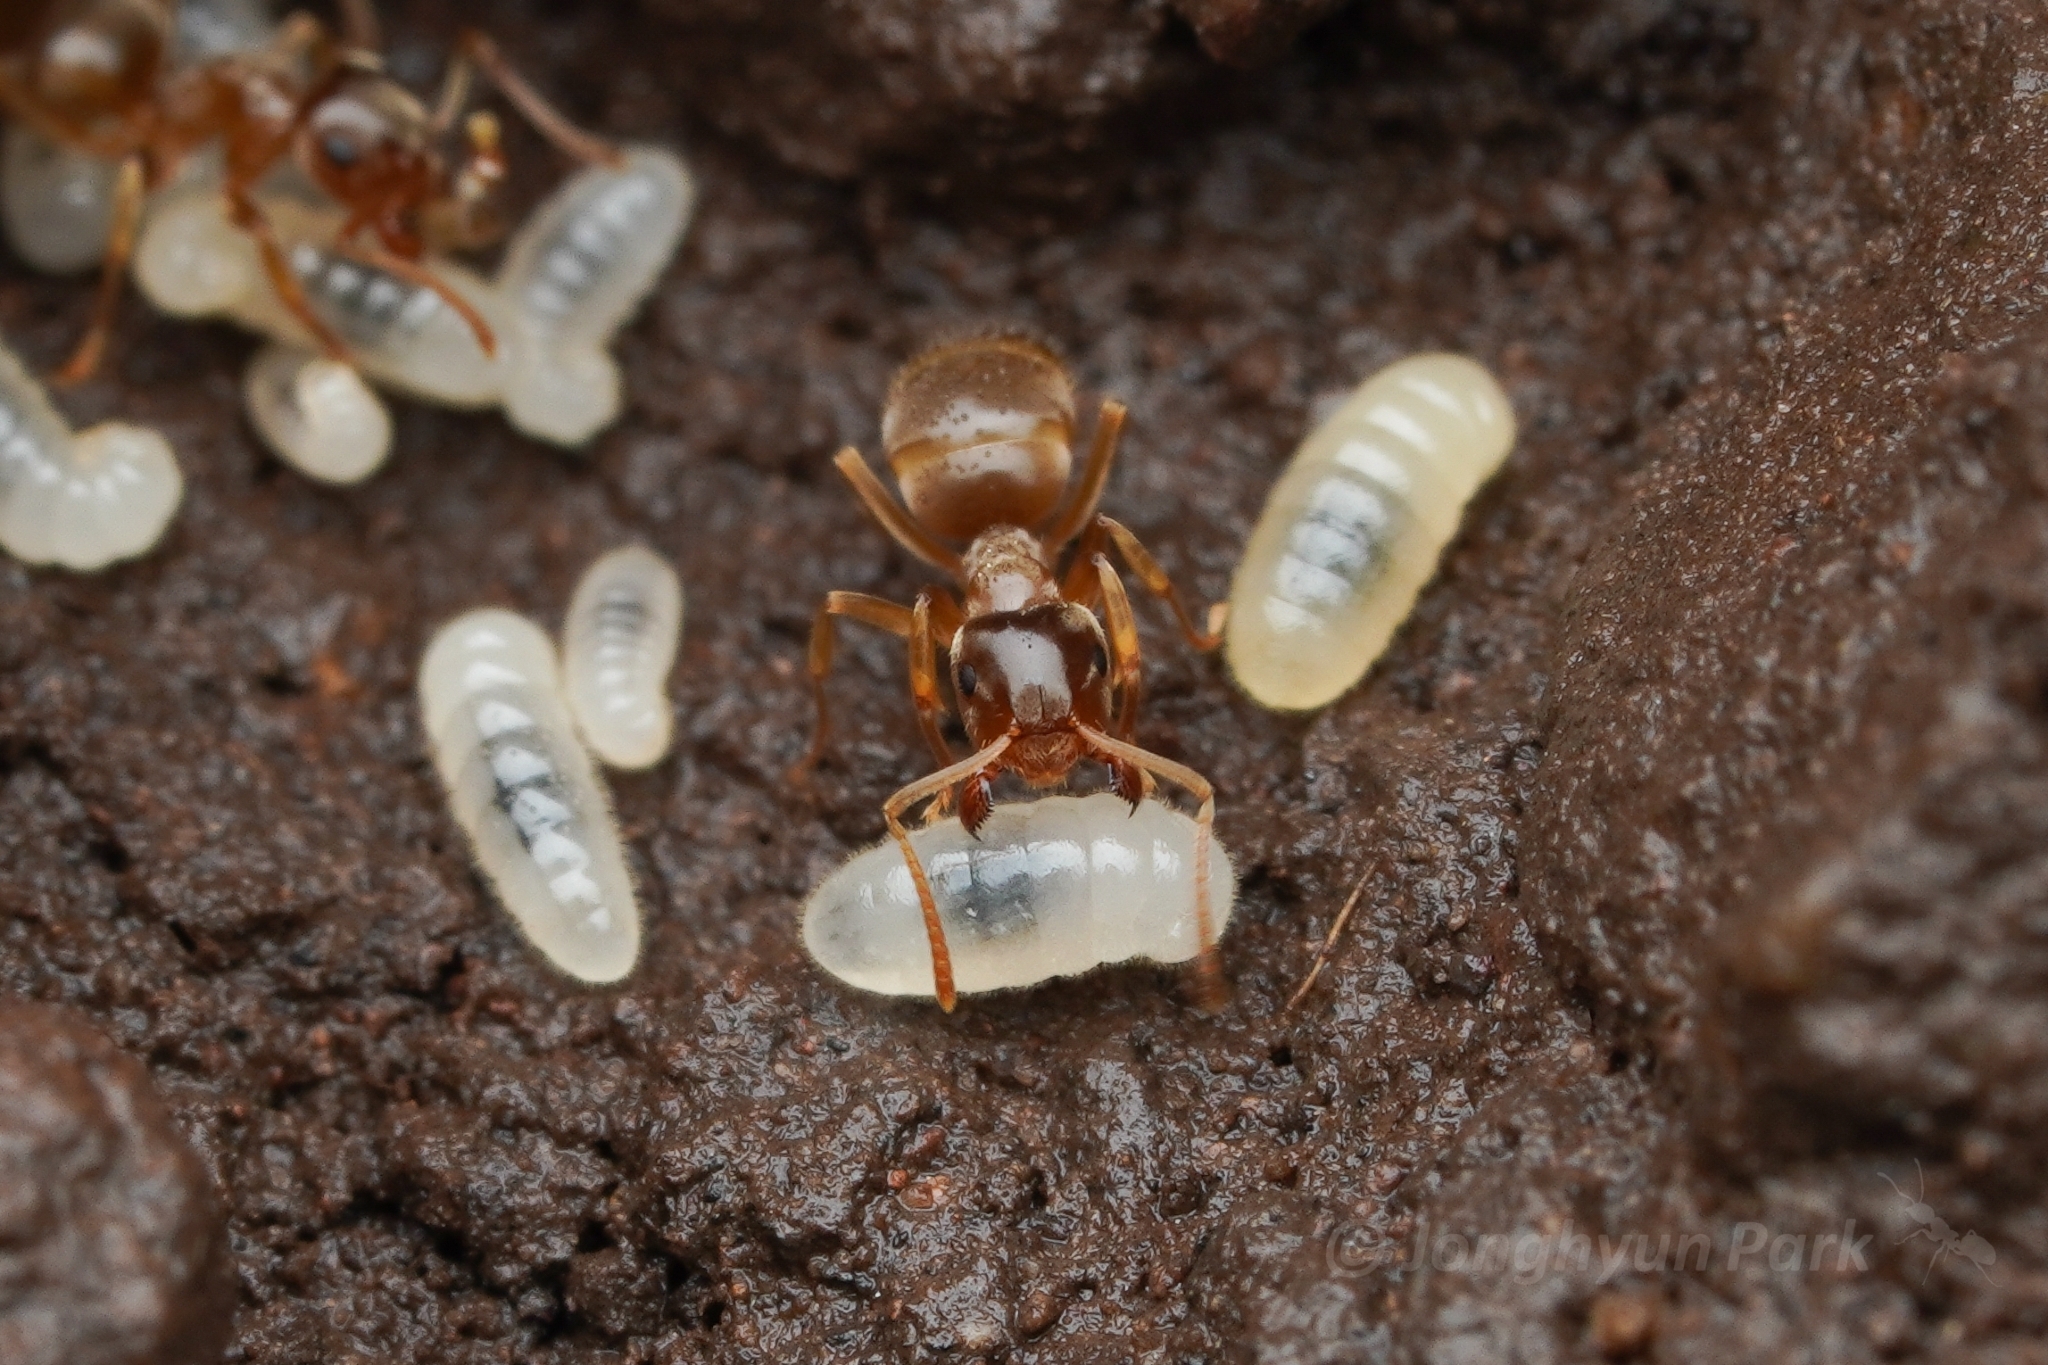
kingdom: Animalia
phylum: Arthropoda
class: Insecta
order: Hymenoptera
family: Formicidae
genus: Lasius
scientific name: Lasius pallitarsis
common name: Subterranean aphid-tending ant
